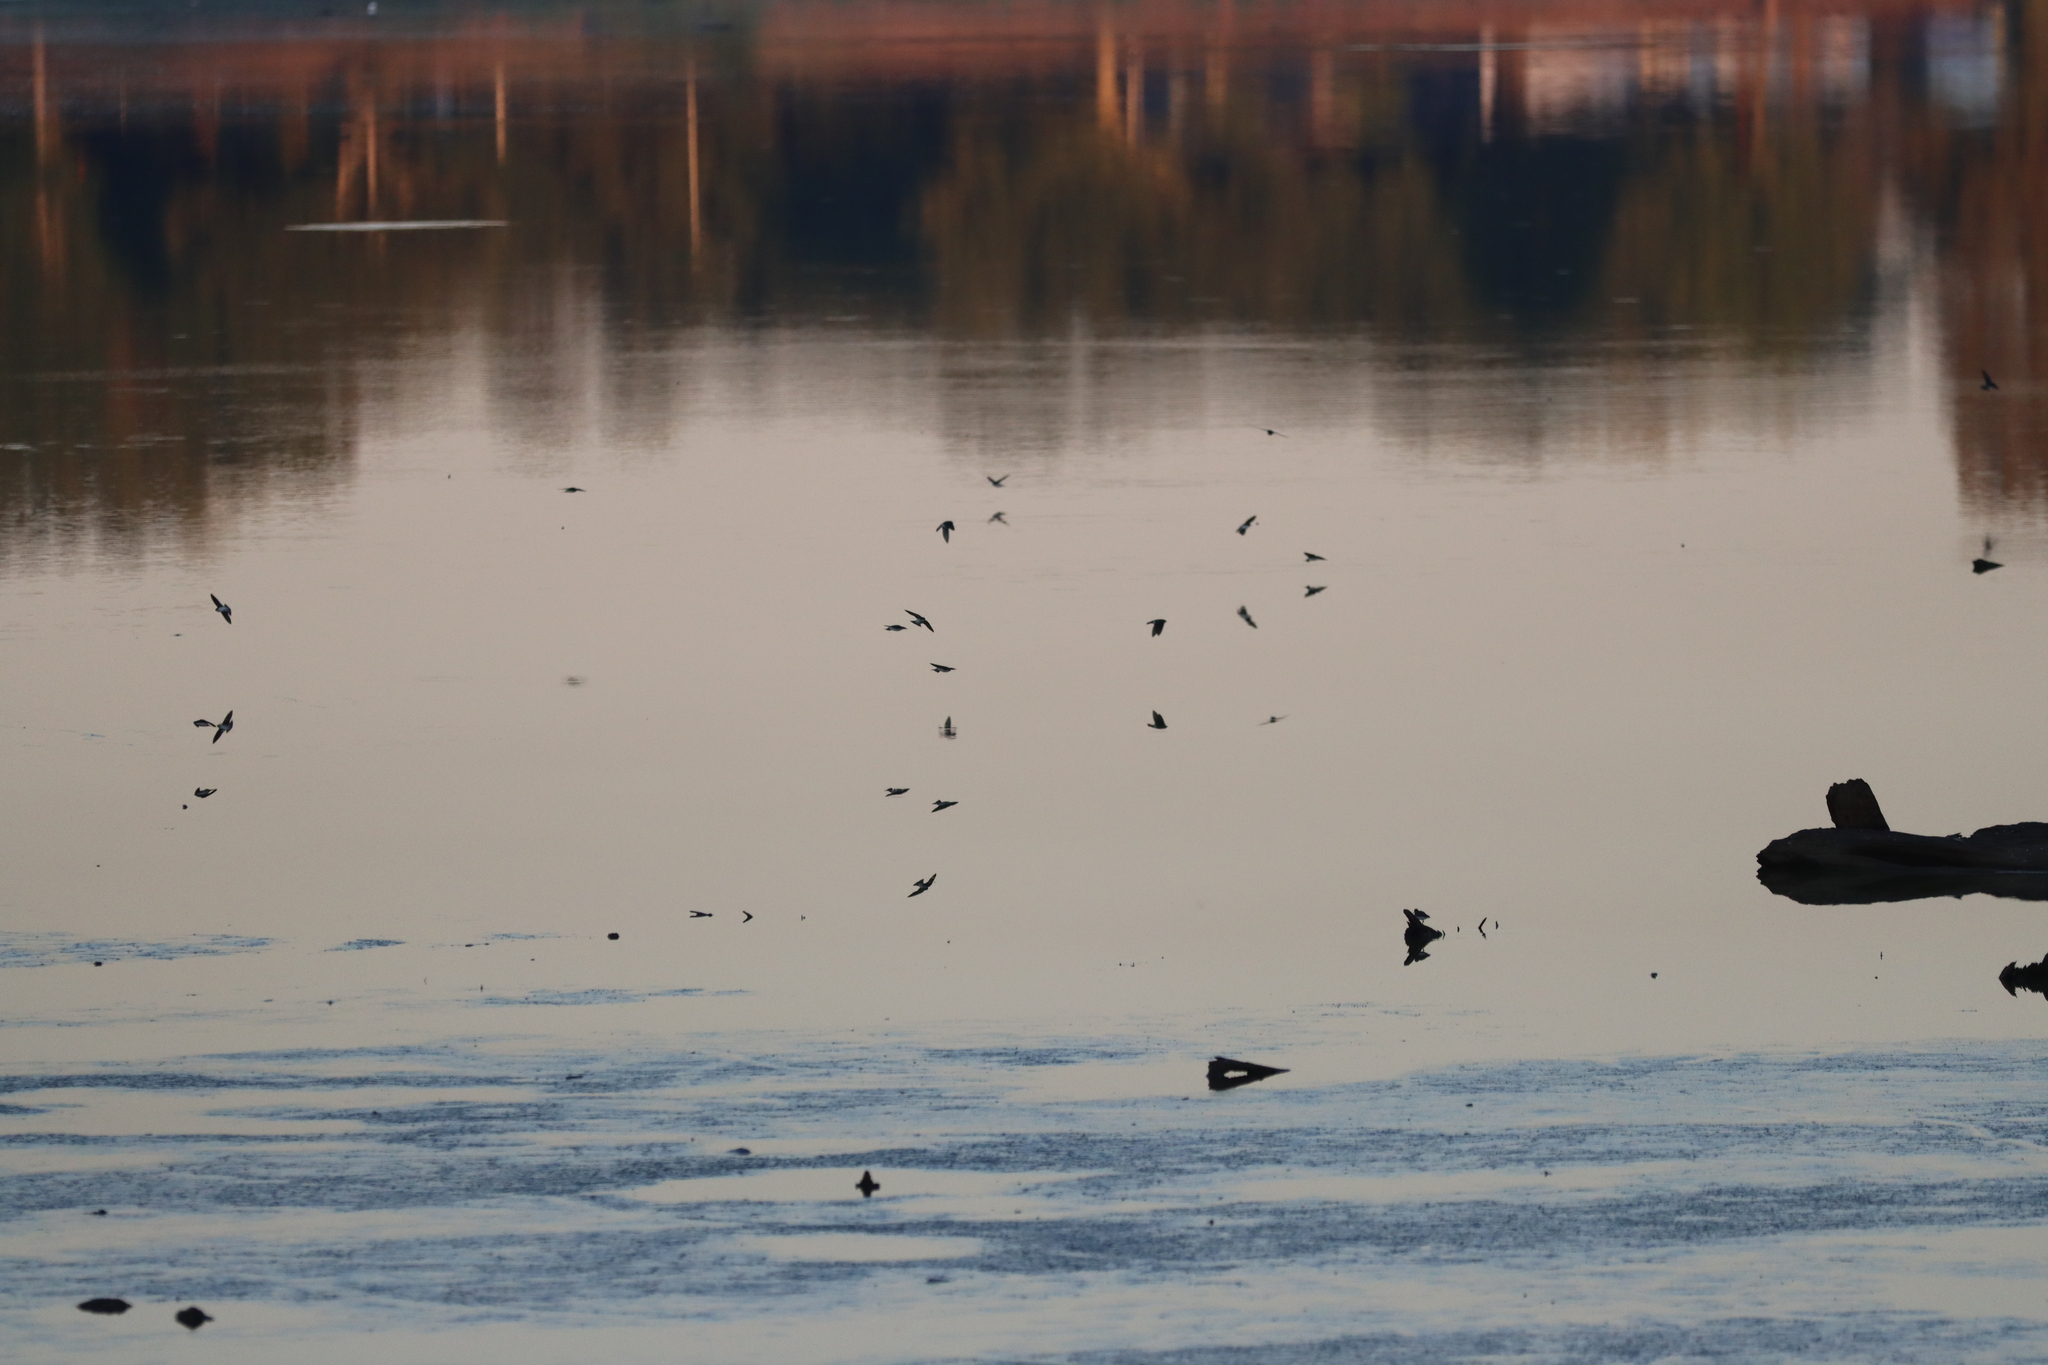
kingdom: Animalia
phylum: Chordata
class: Aves
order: Passeriformes
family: Hirundinidae
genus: Tachycineta
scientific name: Tachycineta bicolor
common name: Tree swallow
